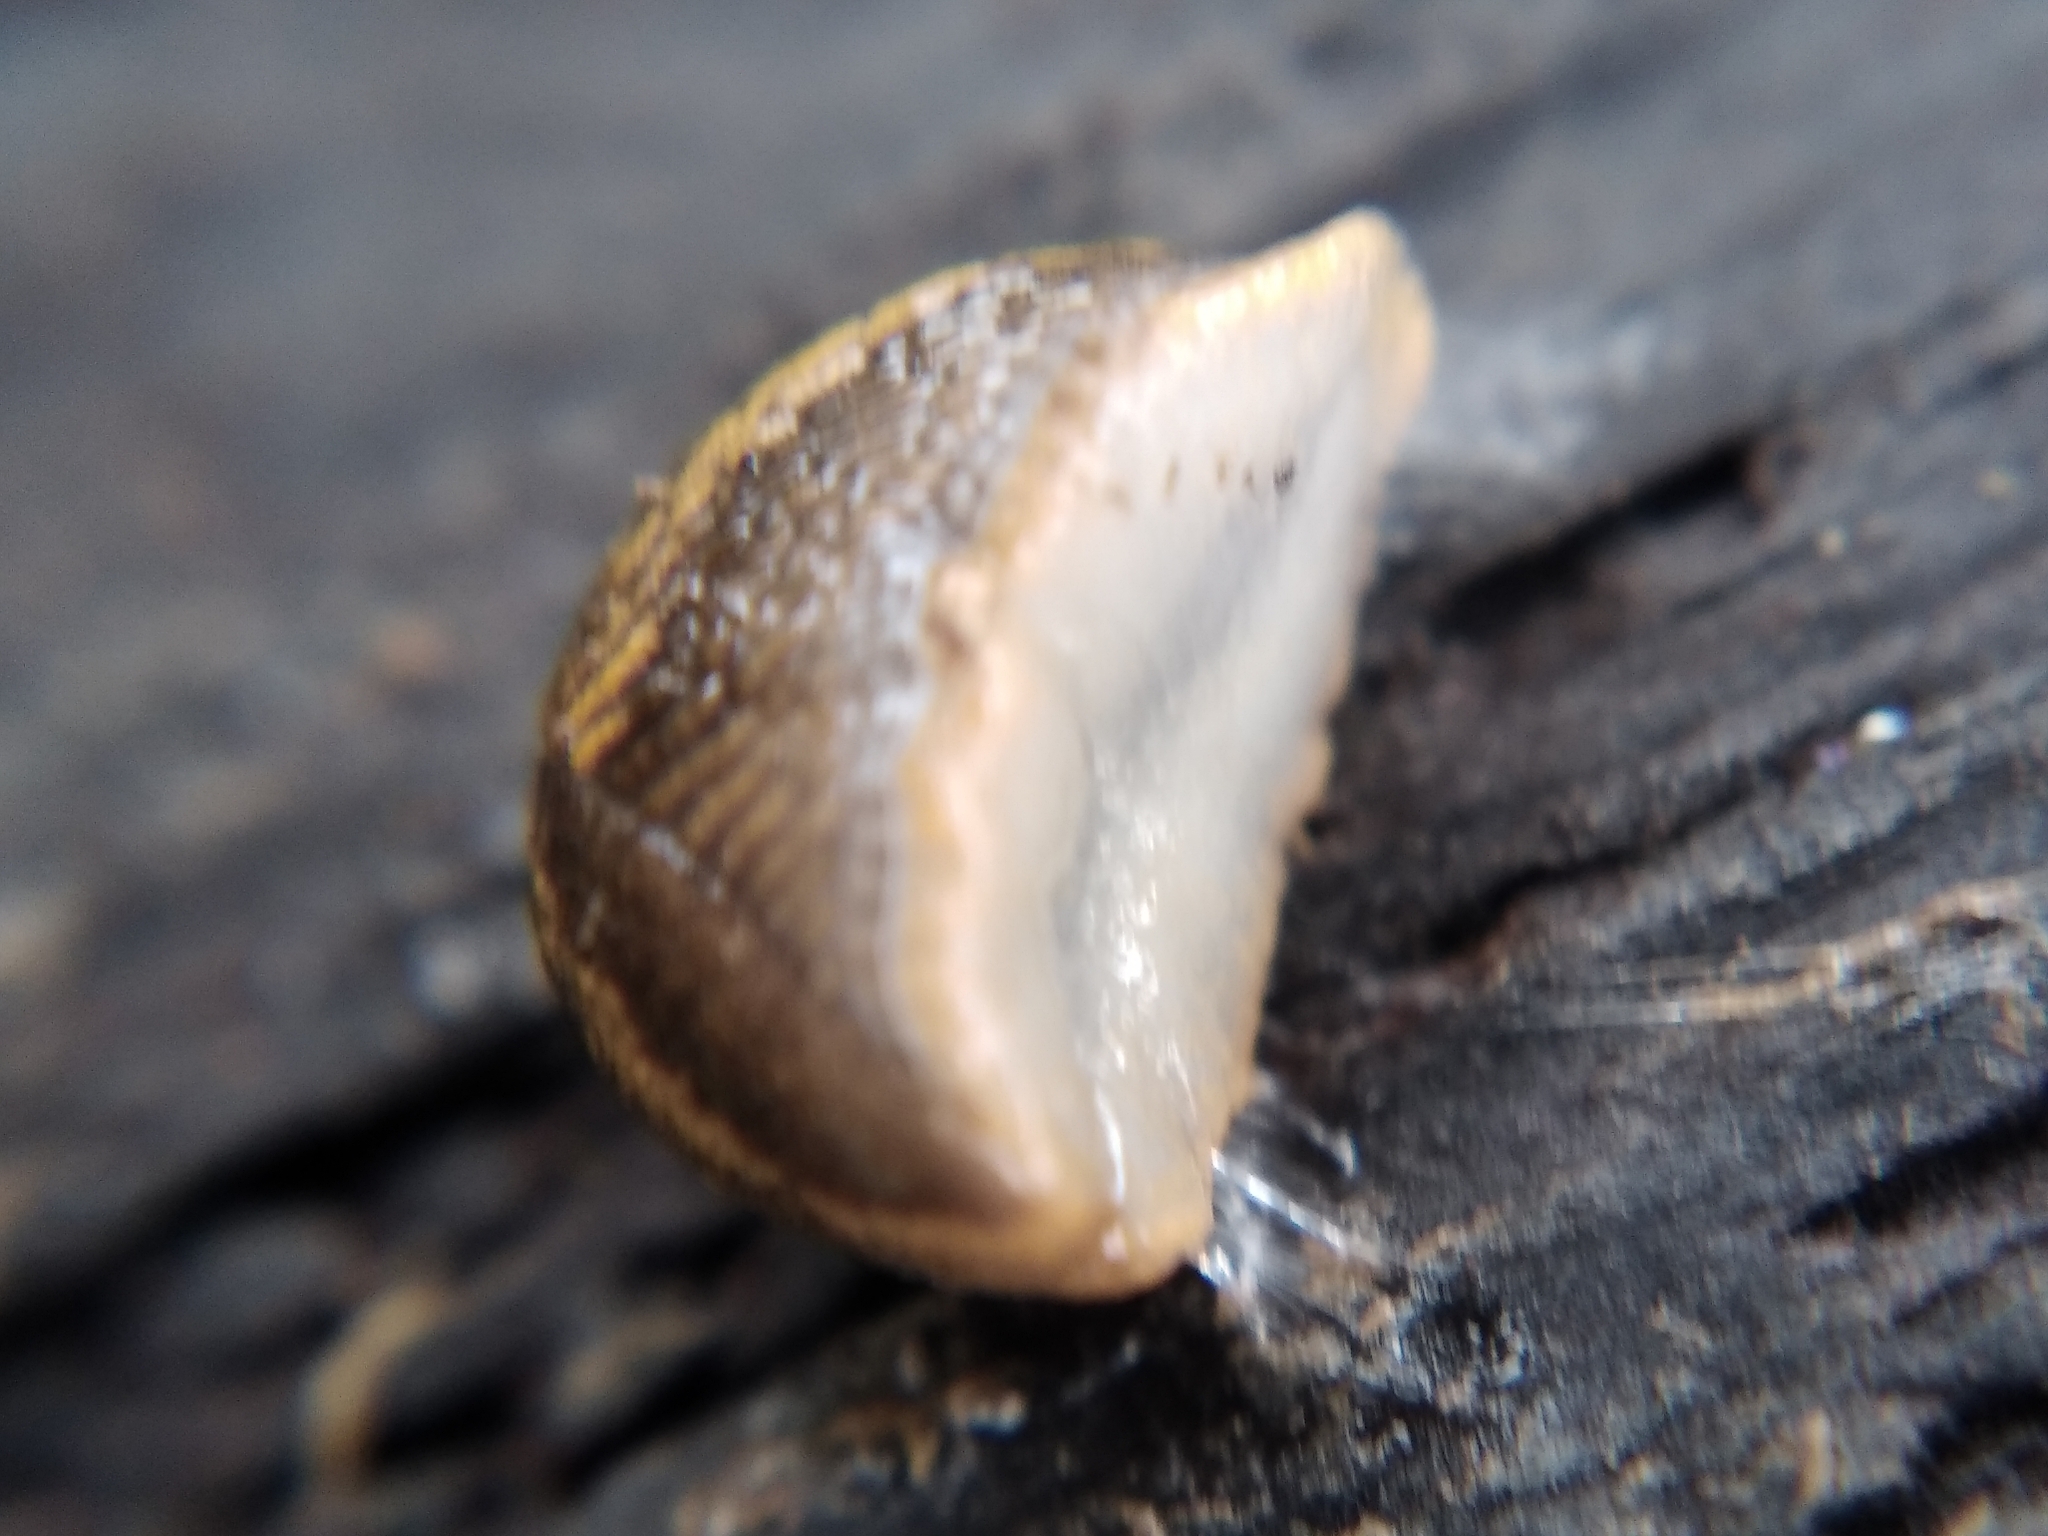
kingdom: Animalia
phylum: Mollusca
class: Gastropoda
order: Stylommatophora
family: Arionidae
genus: Arion
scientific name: Arion vulgaris
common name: Lusitanian slug
